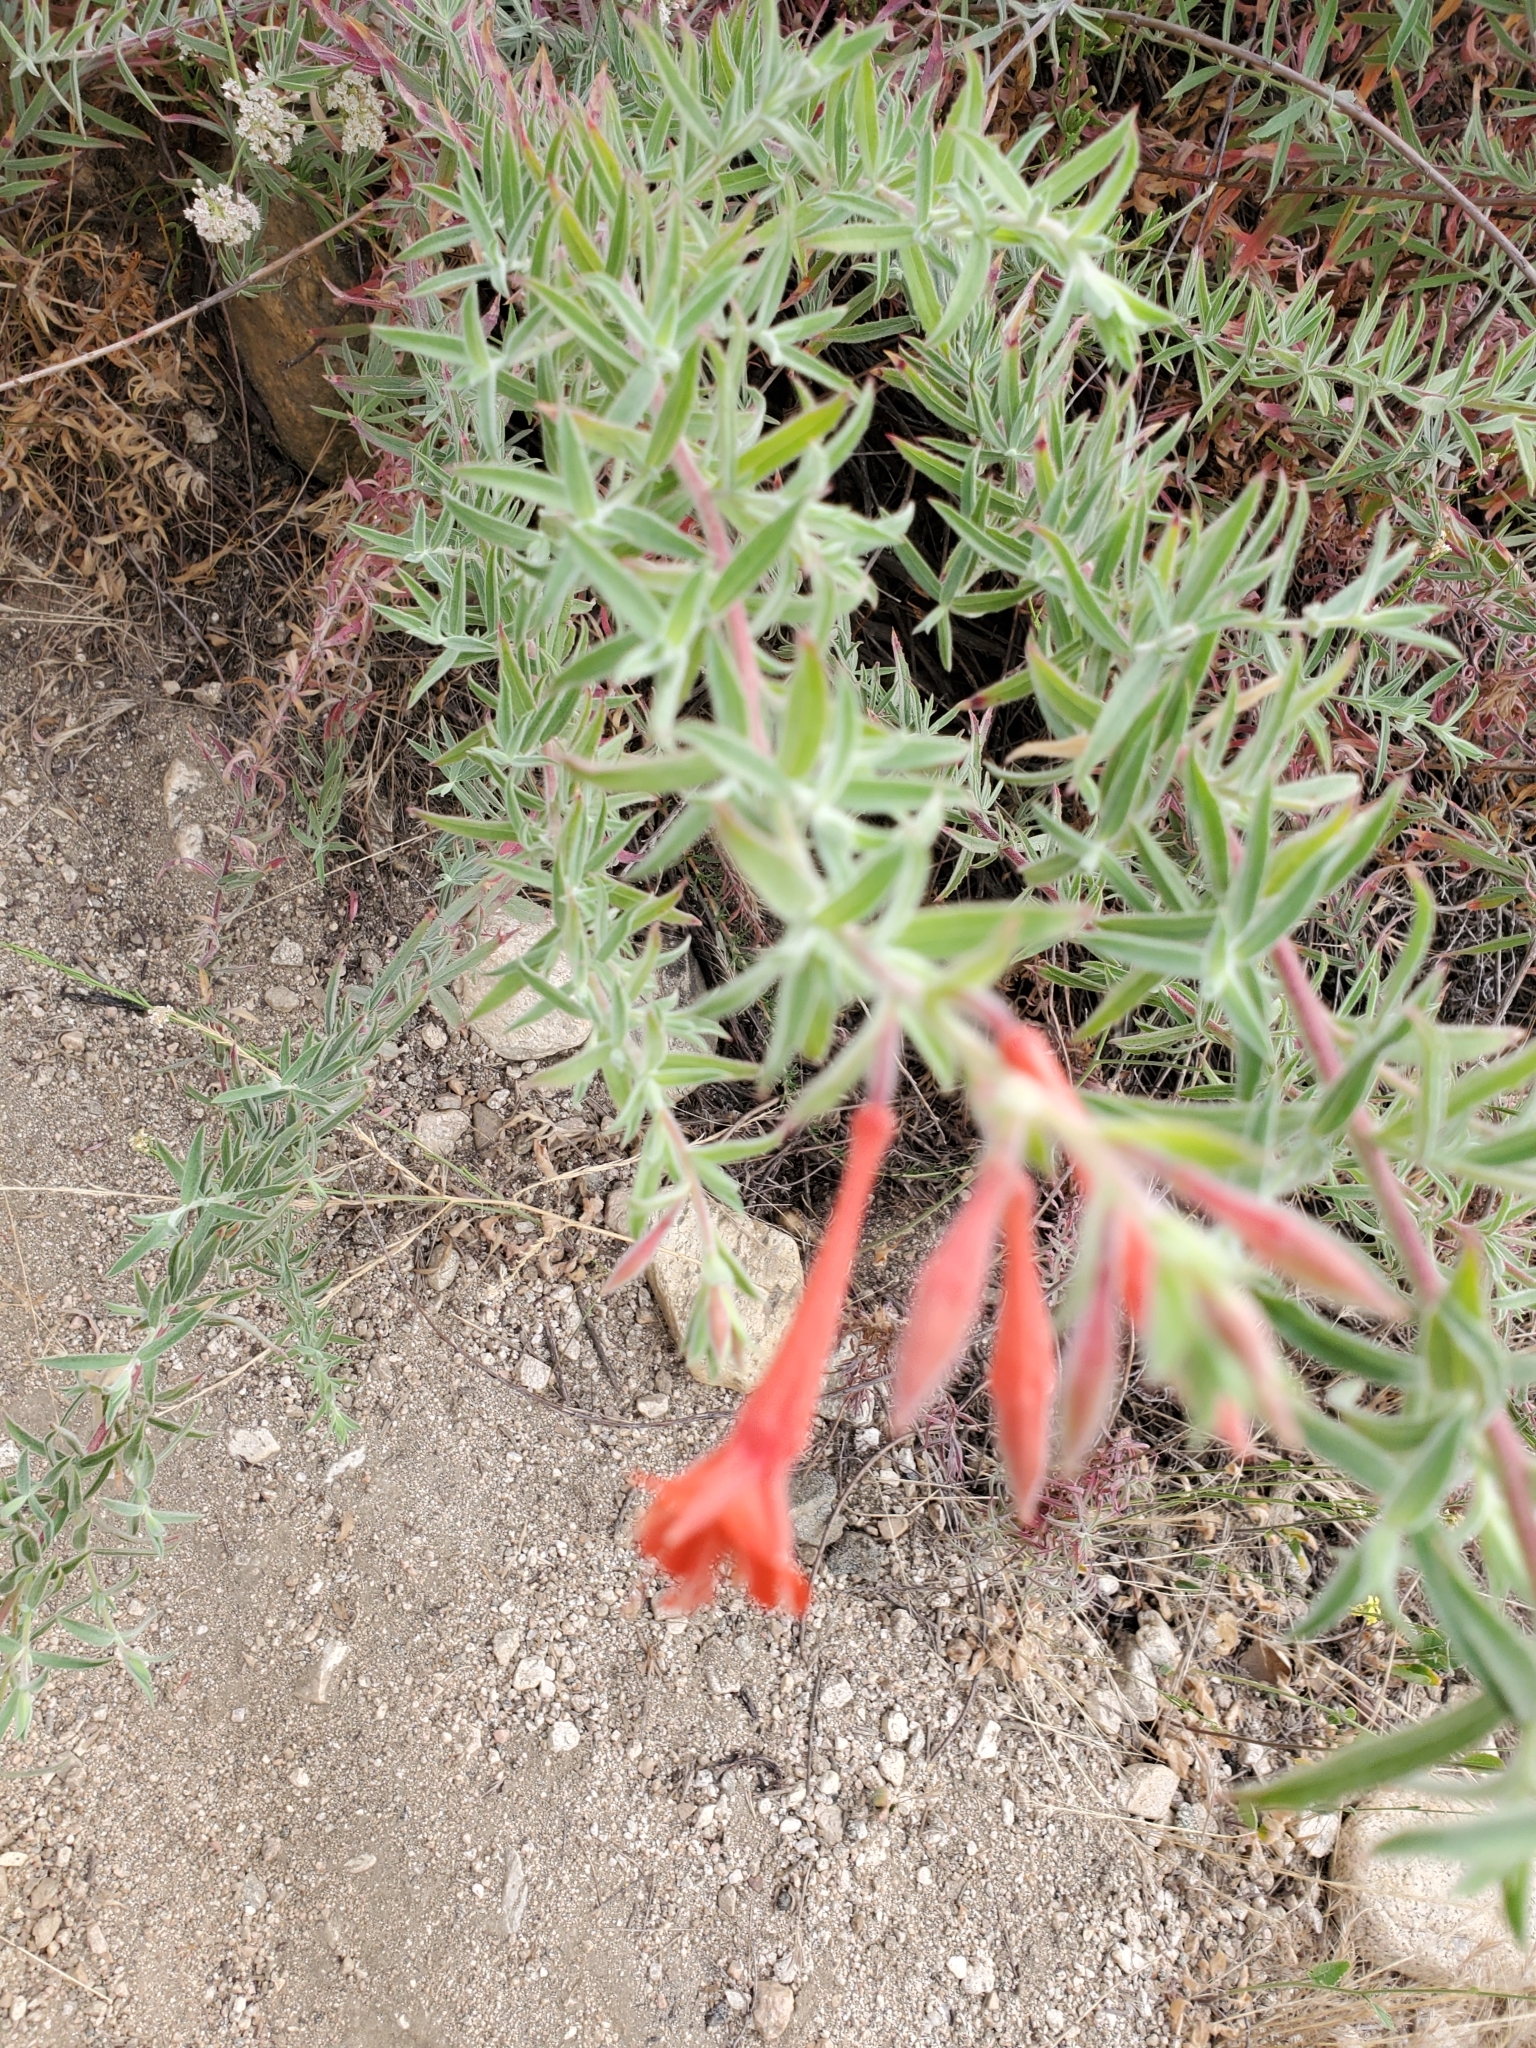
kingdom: Plantae
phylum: Tracheophyta
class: Magnoliopsida
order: Myrtales
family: Onagraceae
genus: Epilobium
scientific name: Epilobium canum
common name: California-fuchsia
